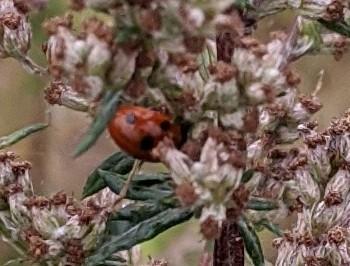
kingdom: Animalia
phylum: Arthropoda
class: Insecta
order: Coleoptera
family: Coccinellidae
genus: Coccinella
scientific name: Coccinella septempunctata
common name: Sevenspotted lady beetle
